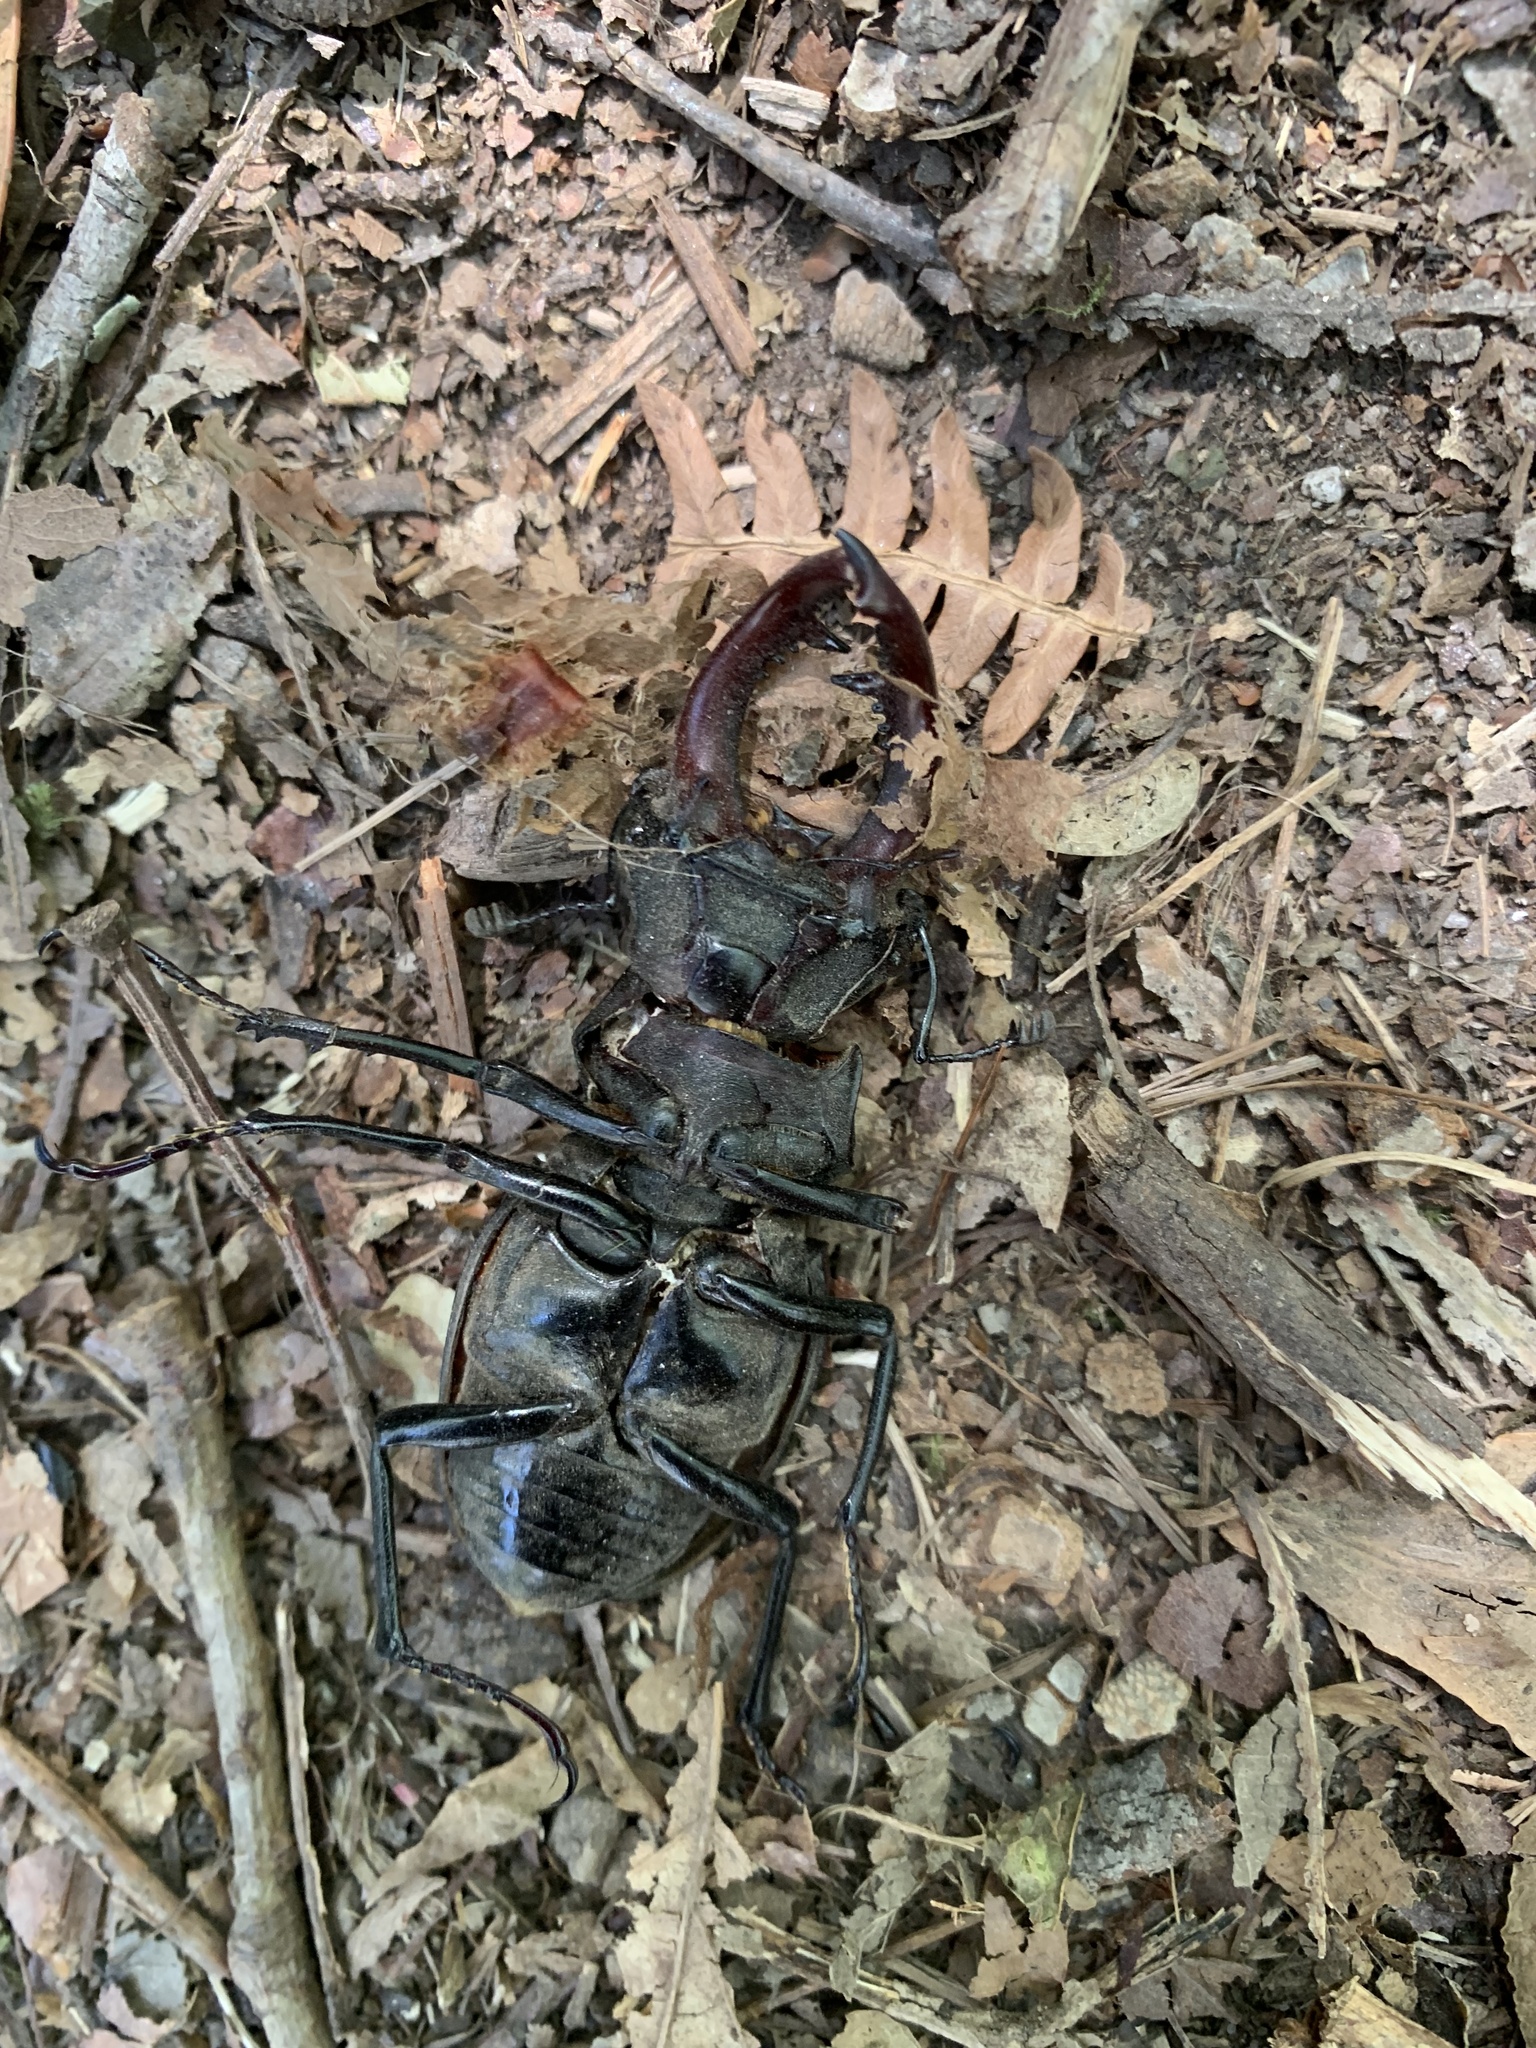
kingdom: Animalia
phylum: Arthropoda
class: Insecta
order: Coleoptera
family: Lucanidae
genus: Lucanus
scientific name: Lucanus cervus
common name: Stag beetle
